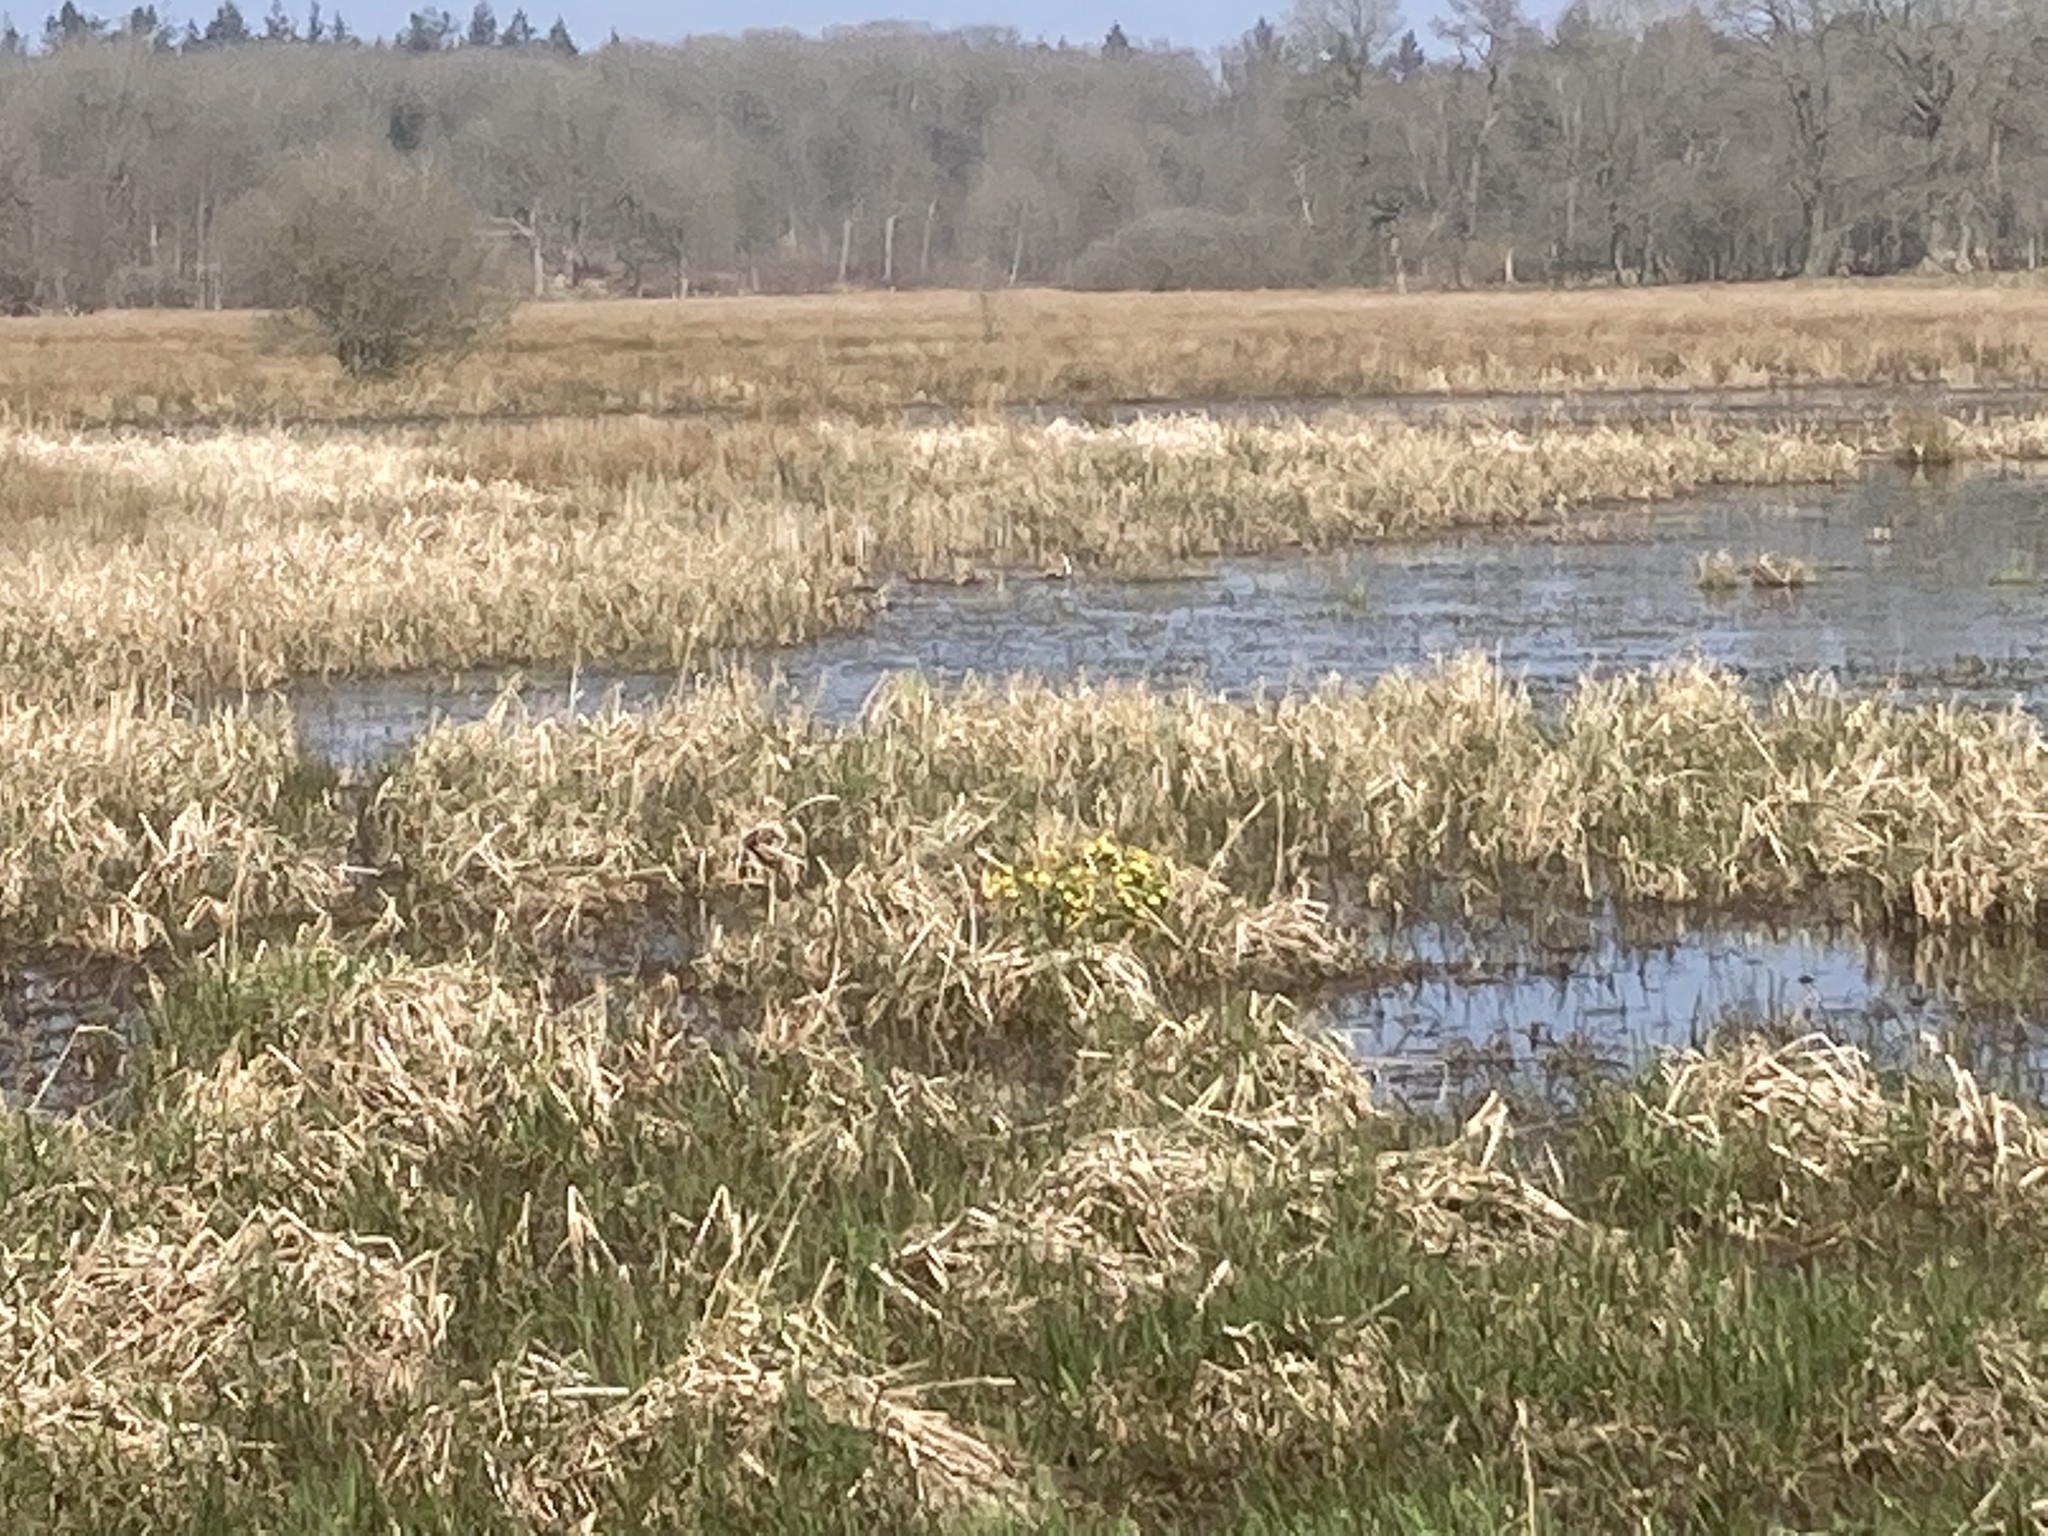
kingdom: Plantae
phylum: Tracheophyta
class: Magnoliopsida
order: Ranunculales
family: Ranunculaceae
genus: Caltha
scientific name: Caltha palustris
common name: Marsh marigold
